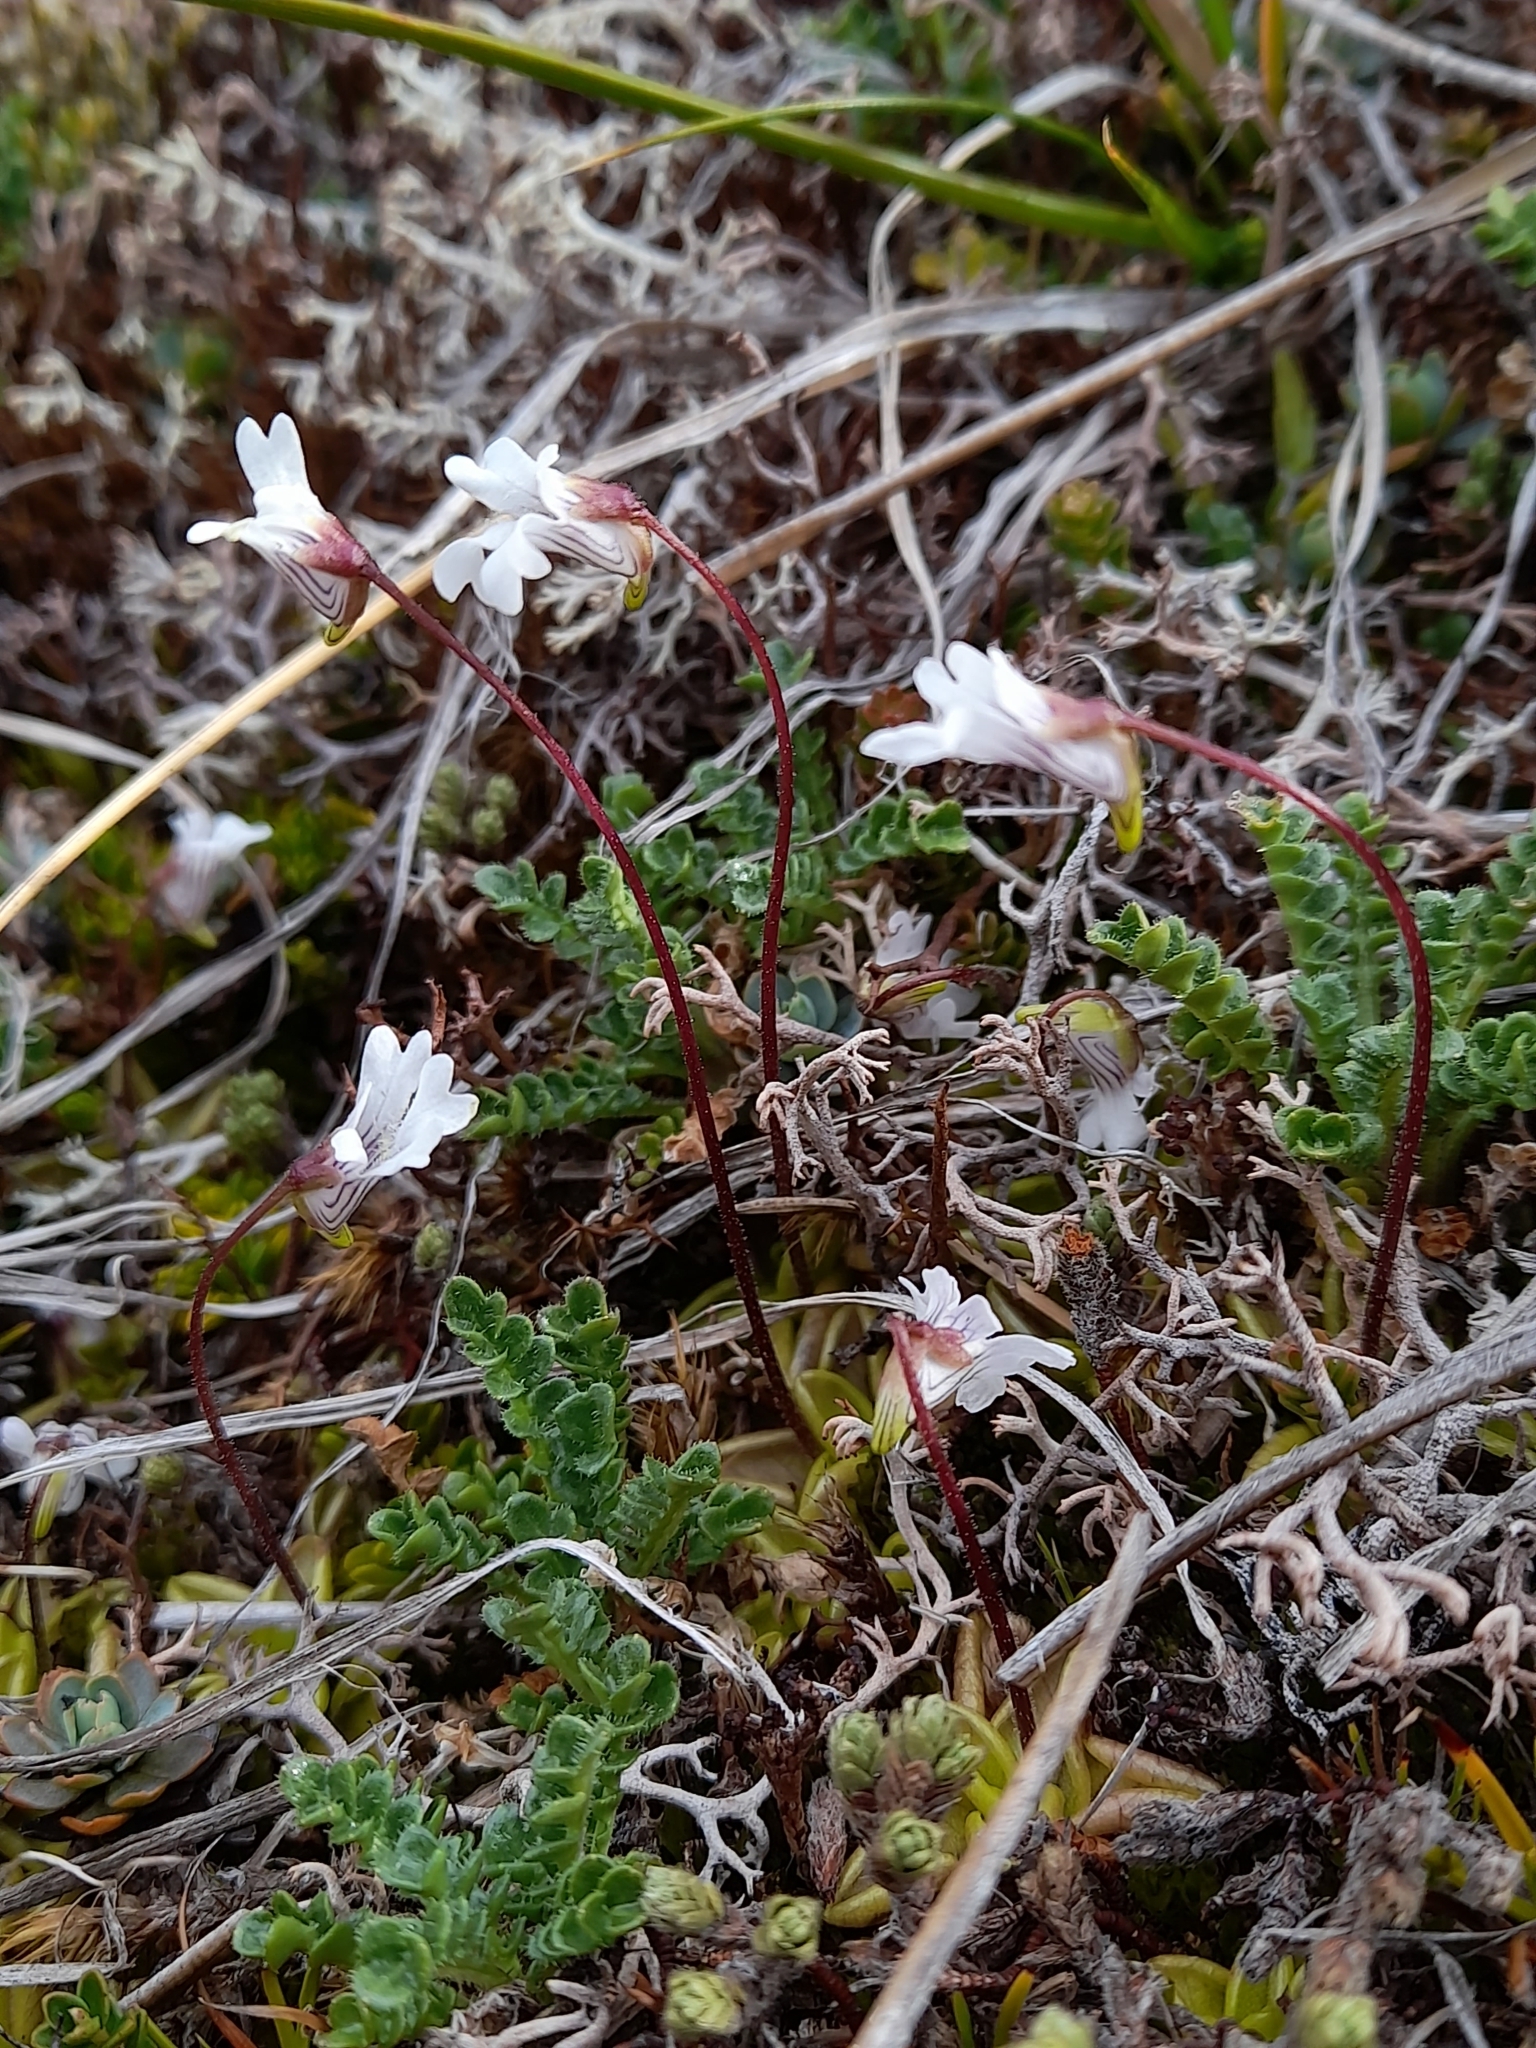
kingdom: Plantae
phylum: Tracheophyta
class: Magnoliopsida
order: Lamiales
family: Lentibulariaceae
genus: Pinguicula
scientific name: Pinguicula antarctica
